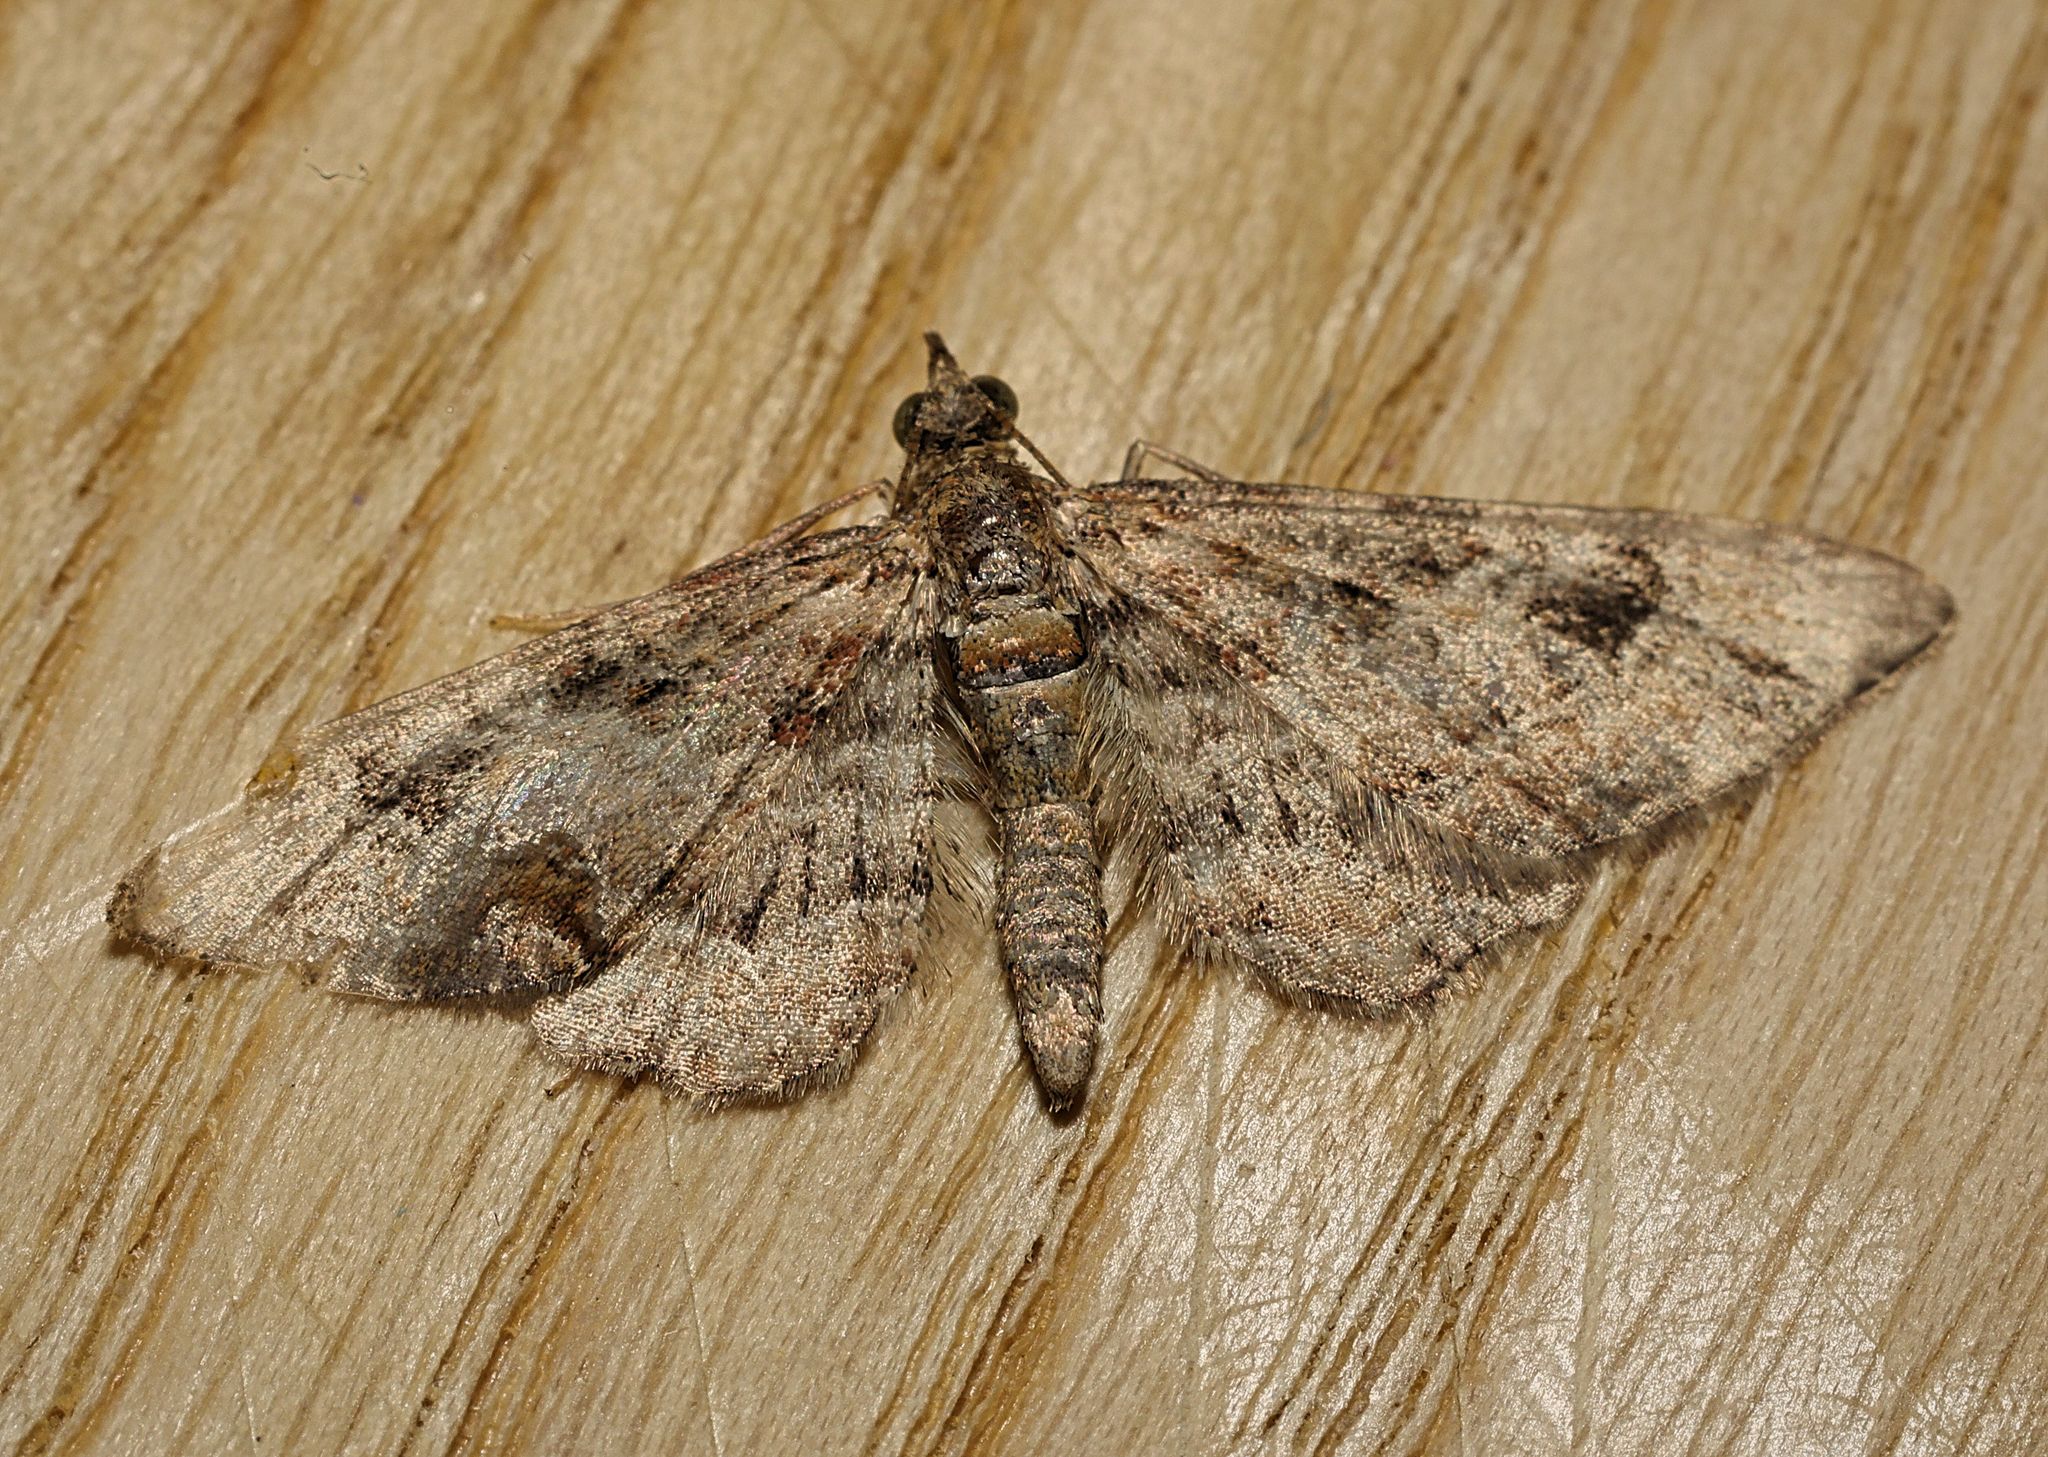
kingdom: Animalia
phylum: Arthropoda
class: Insecta
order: Lepidoptera
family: Geometridae
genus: Gymnoscelis
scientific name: Gymnoscelis rufifasciata
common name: Double-striped pug
